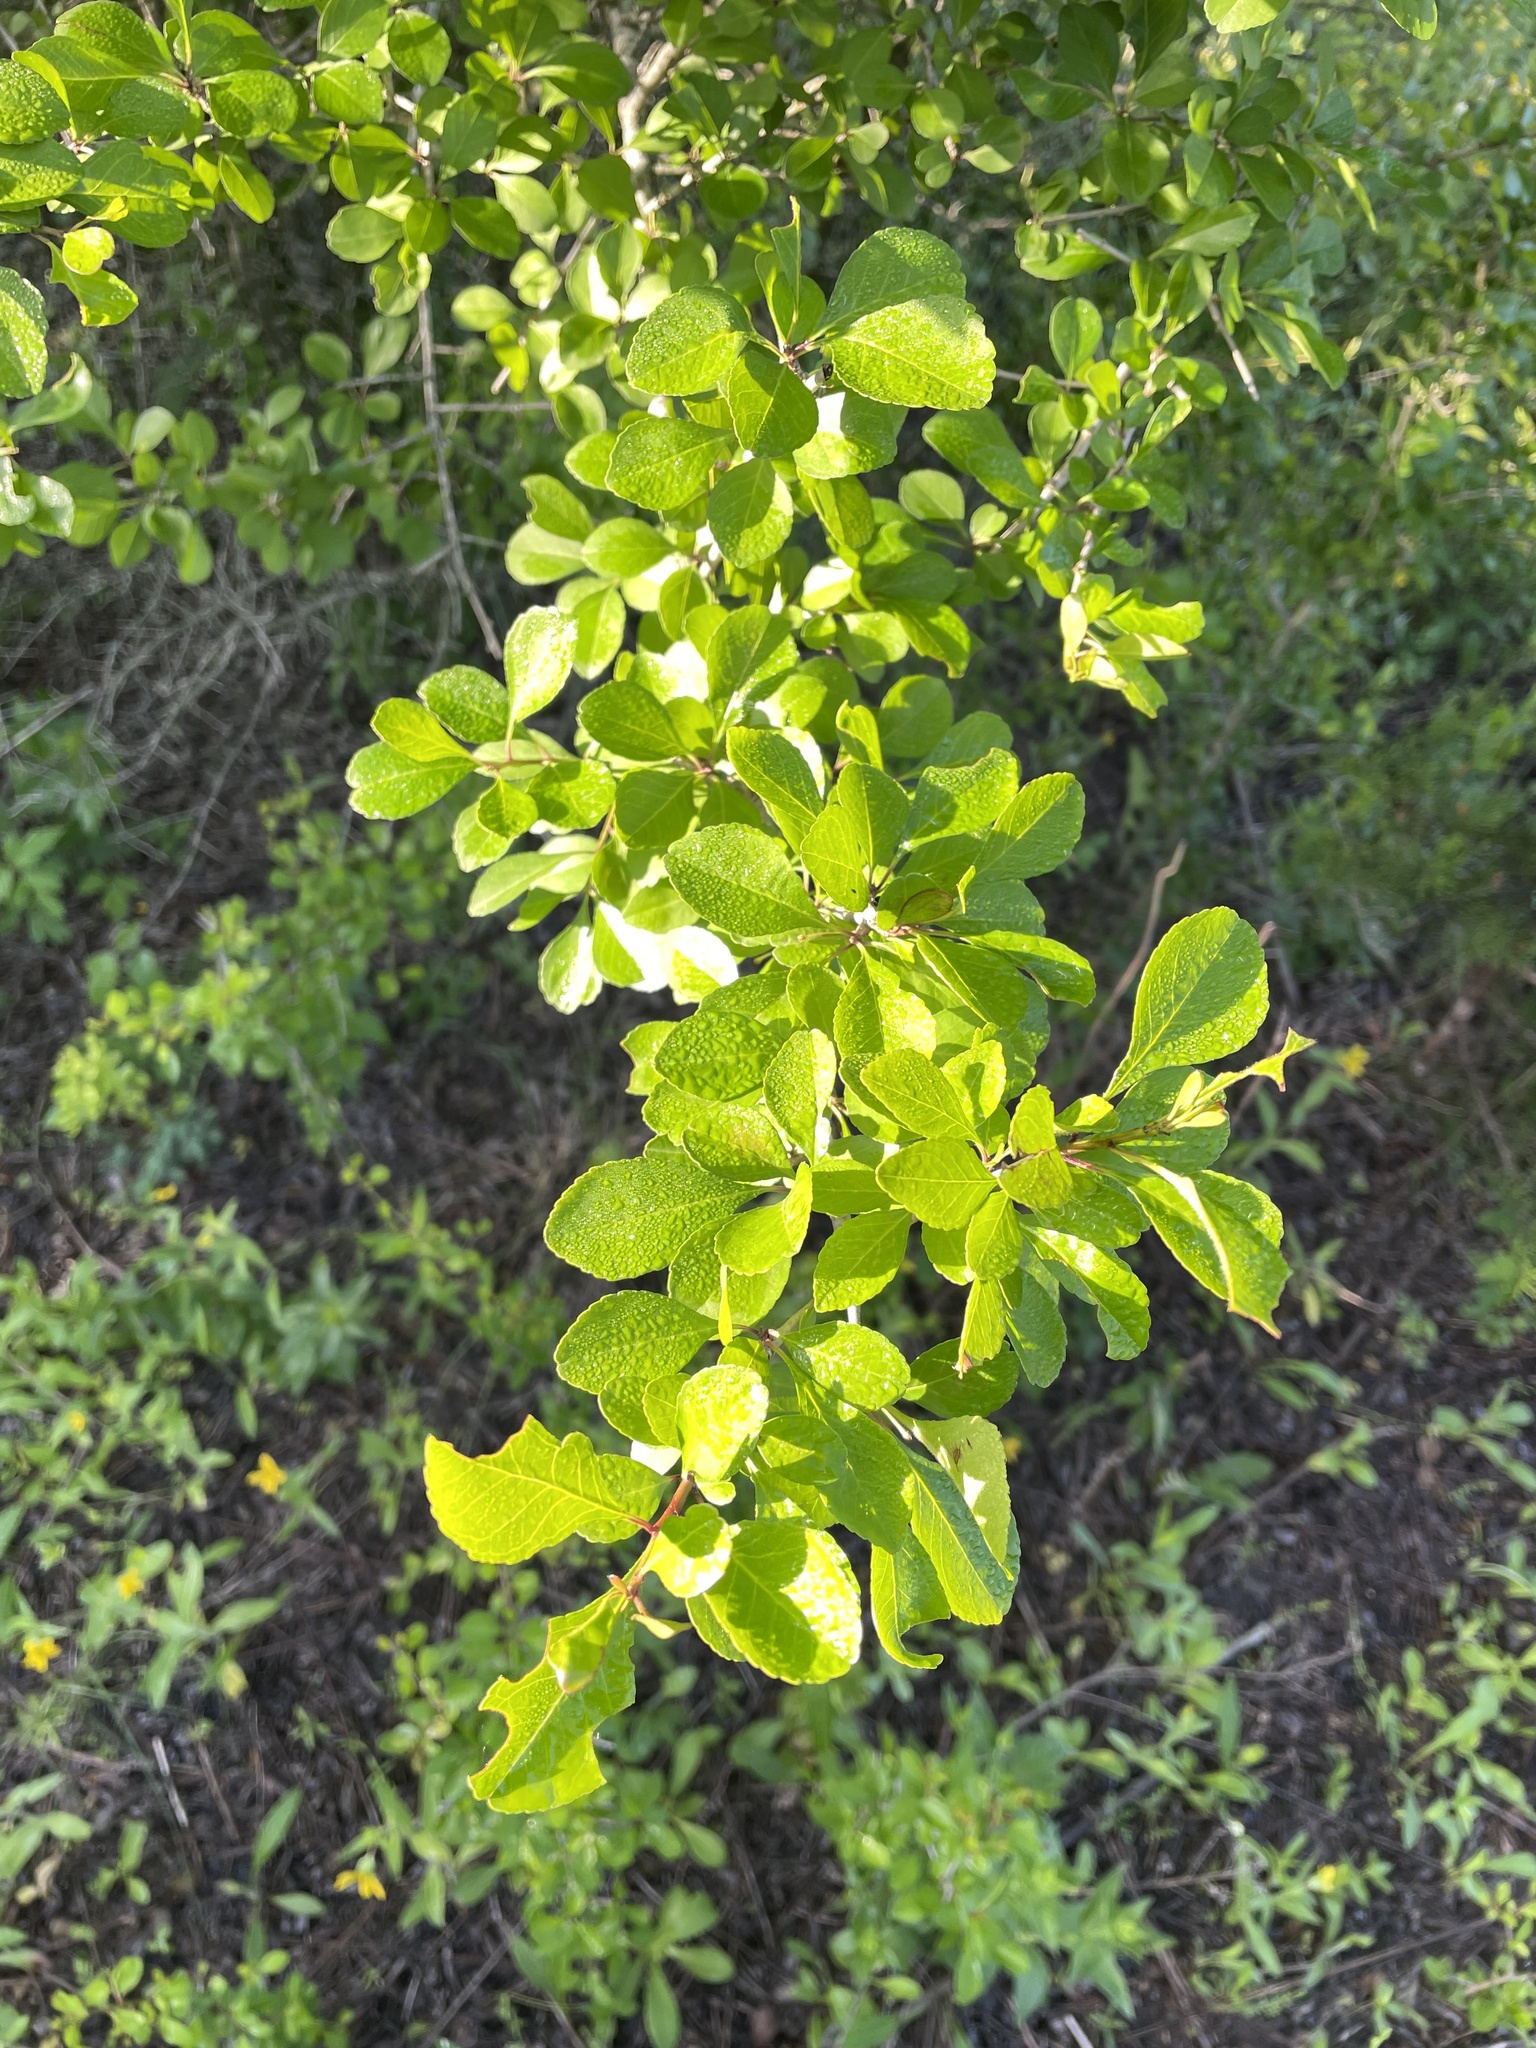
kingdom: Plantae
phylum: Tracheophyta
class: Magnoliopsida
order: Aquifoliales
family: Aquifoliaceae
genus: Ilex
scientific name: Ilex decidua
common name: Possum-haw
